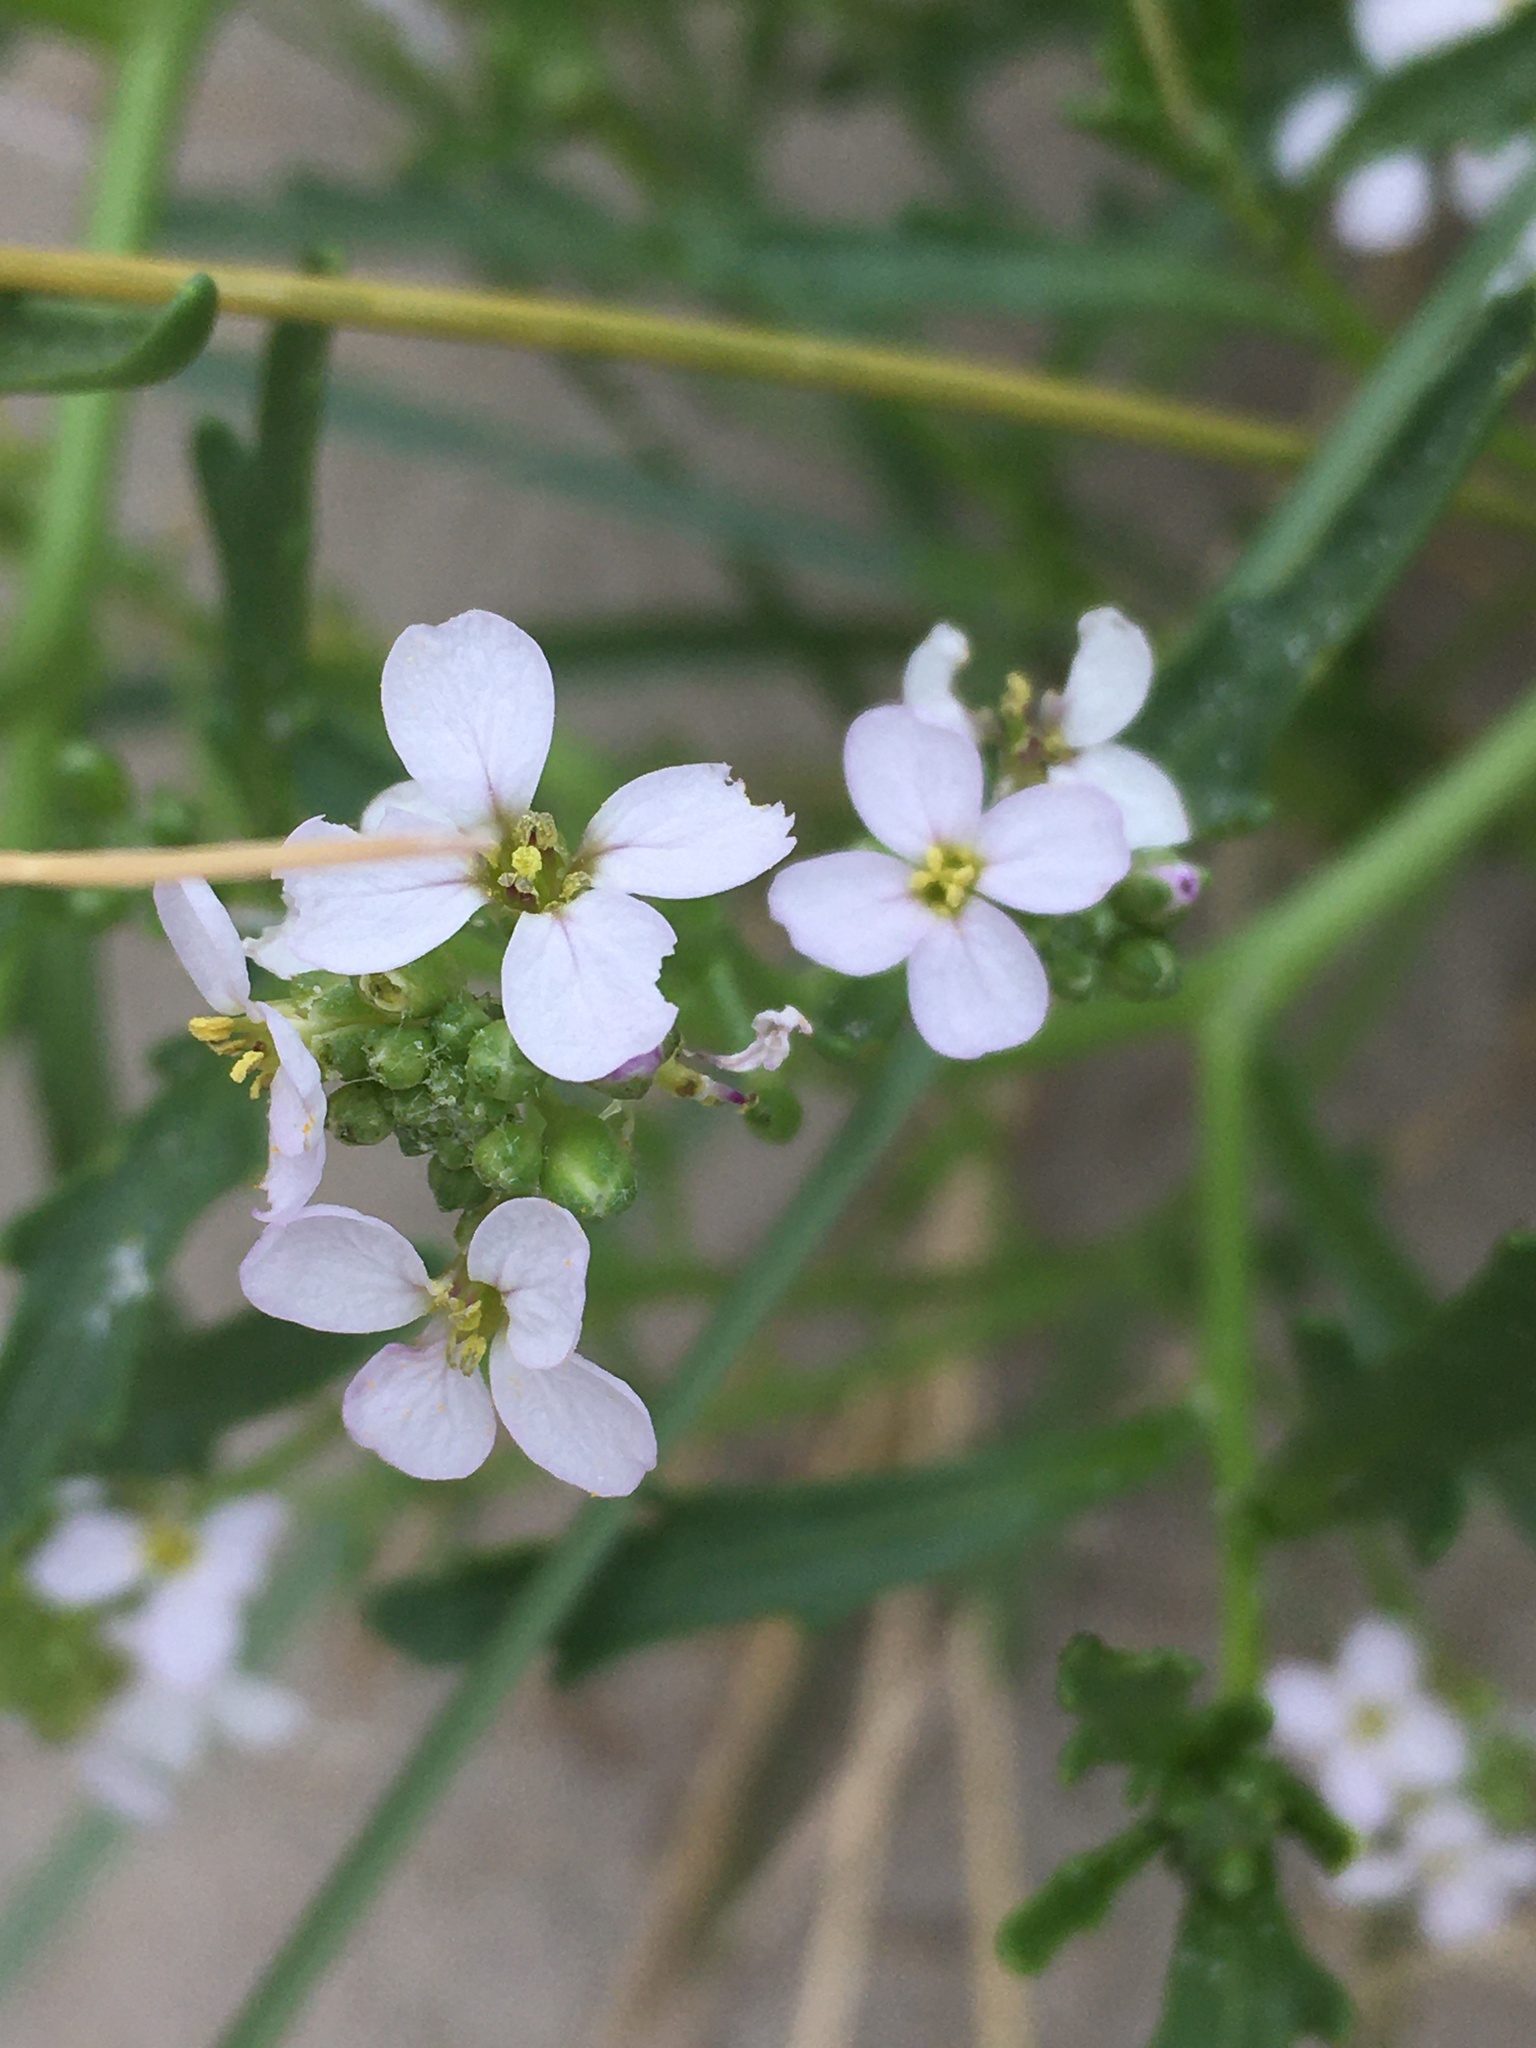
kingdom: Plantae
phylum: Tracheophyta
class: Magnoliopsida
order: Brassicales
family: Brassicaceae
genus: Cakile
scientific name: Cakile maritima
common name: Sea rocket
